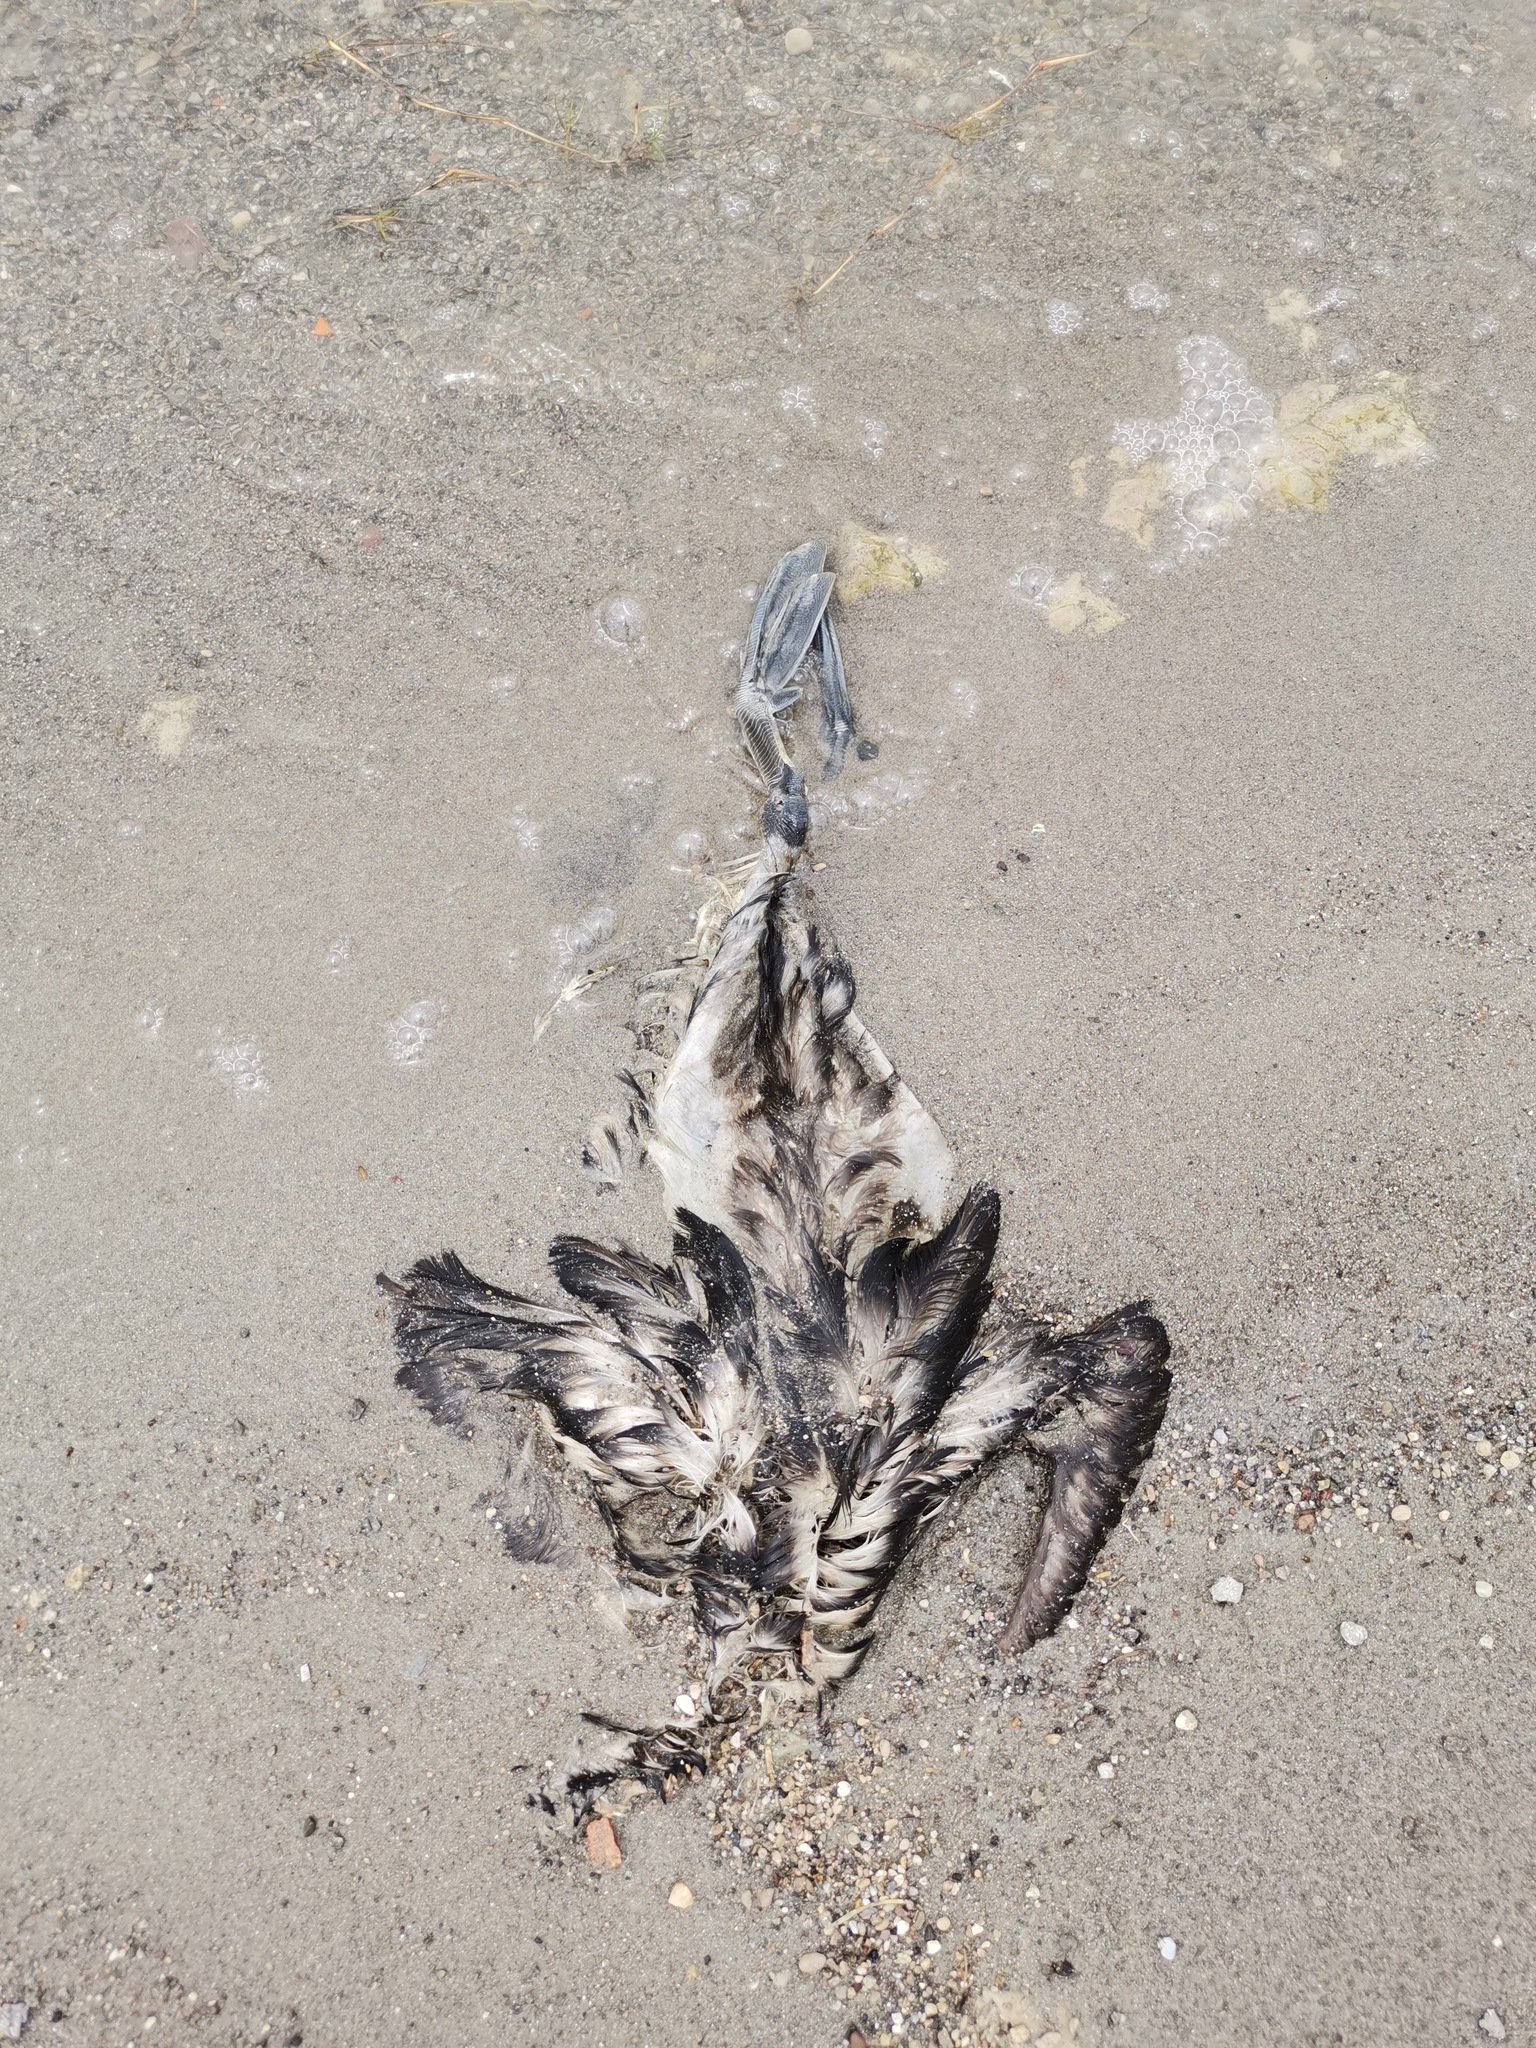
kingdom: Animalia
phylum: Chordata
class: Aves
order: Gruiformes
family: Rallidae
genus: Fulica
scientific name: Fulica americana
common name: American coot
